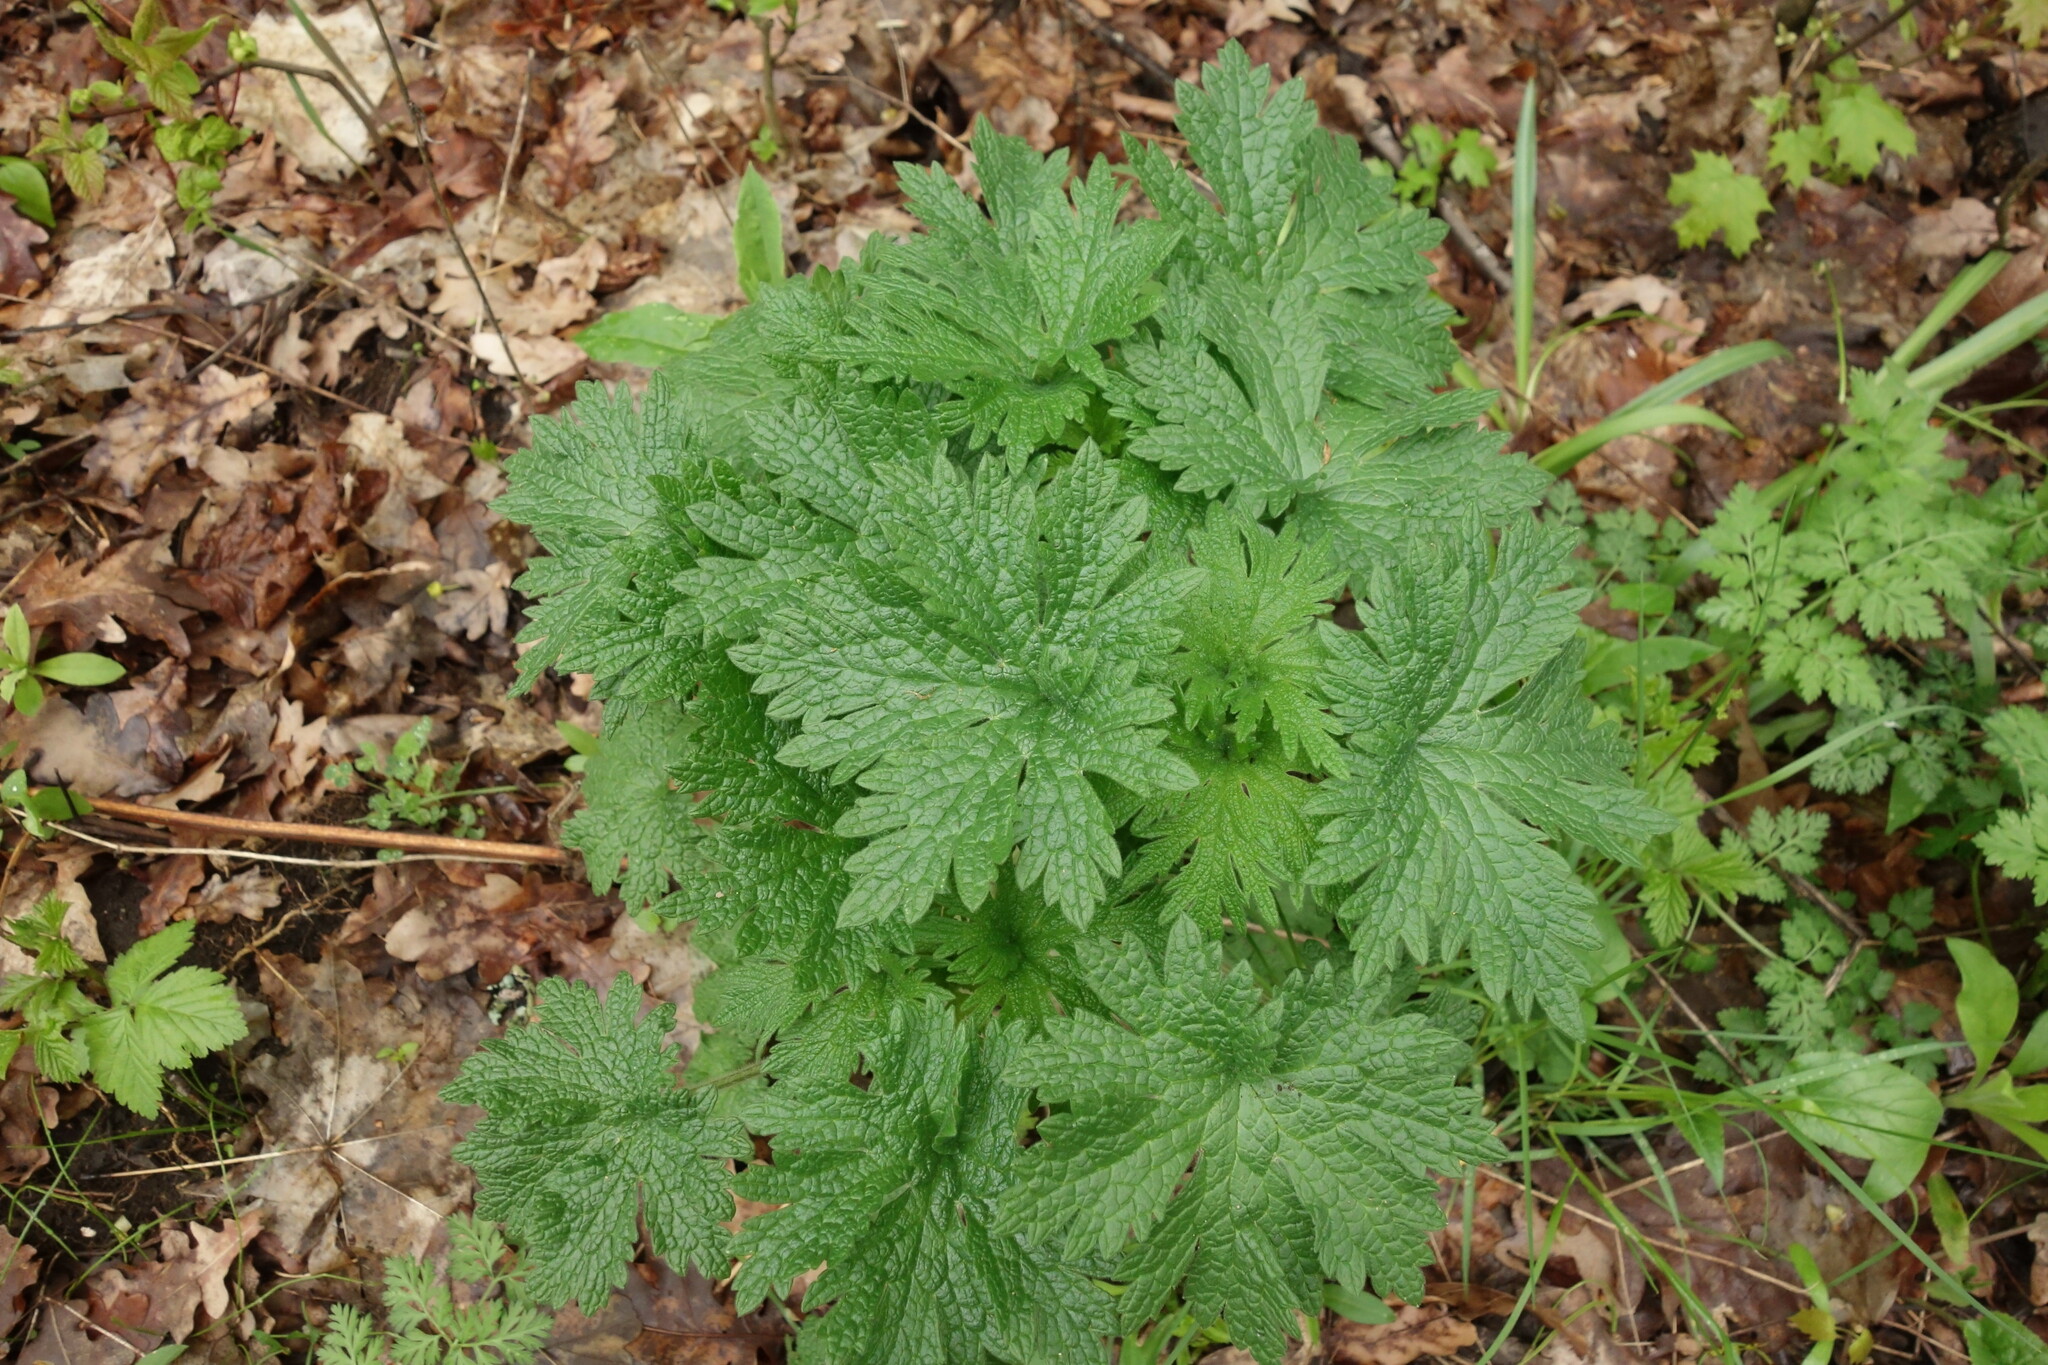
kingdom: Plantae
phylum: Tracheophyta
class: Magnoliopsida
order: Lamiales
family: Lamiaceae
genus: Leonurus
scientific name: Leonurus quinquelobatus
